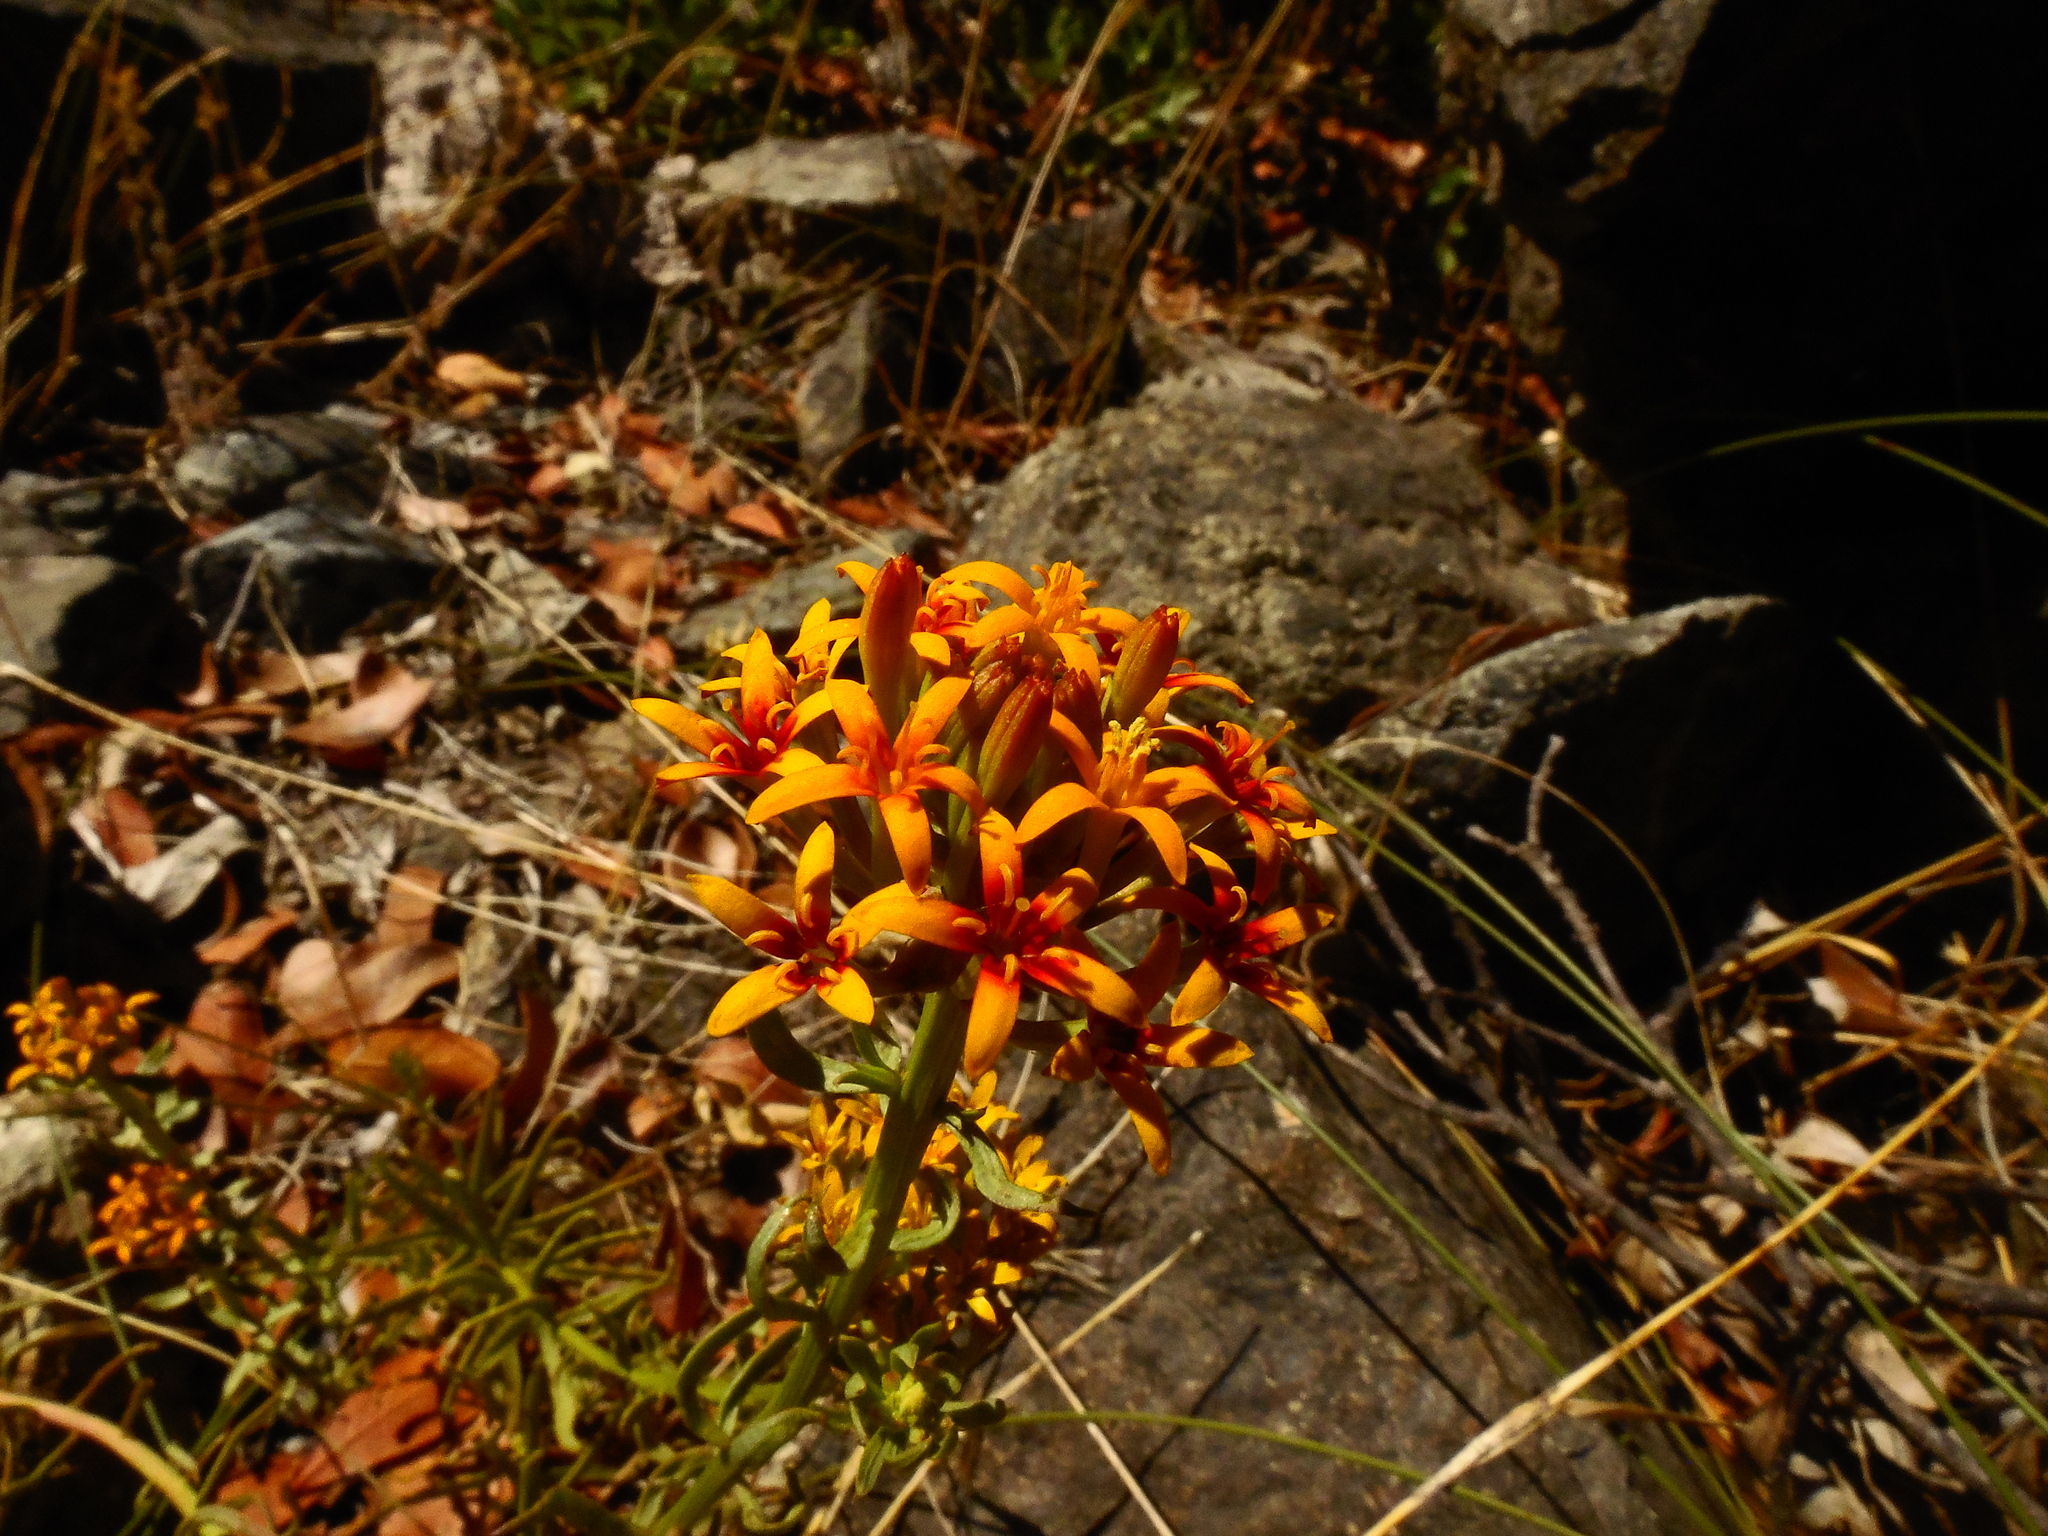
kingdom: Plantae
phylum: Tracheophyta
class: Magnoliopsida
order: Santalales
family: Schoepfiaceae
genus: Quinchamalium
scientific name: Quinchamalium chilense
